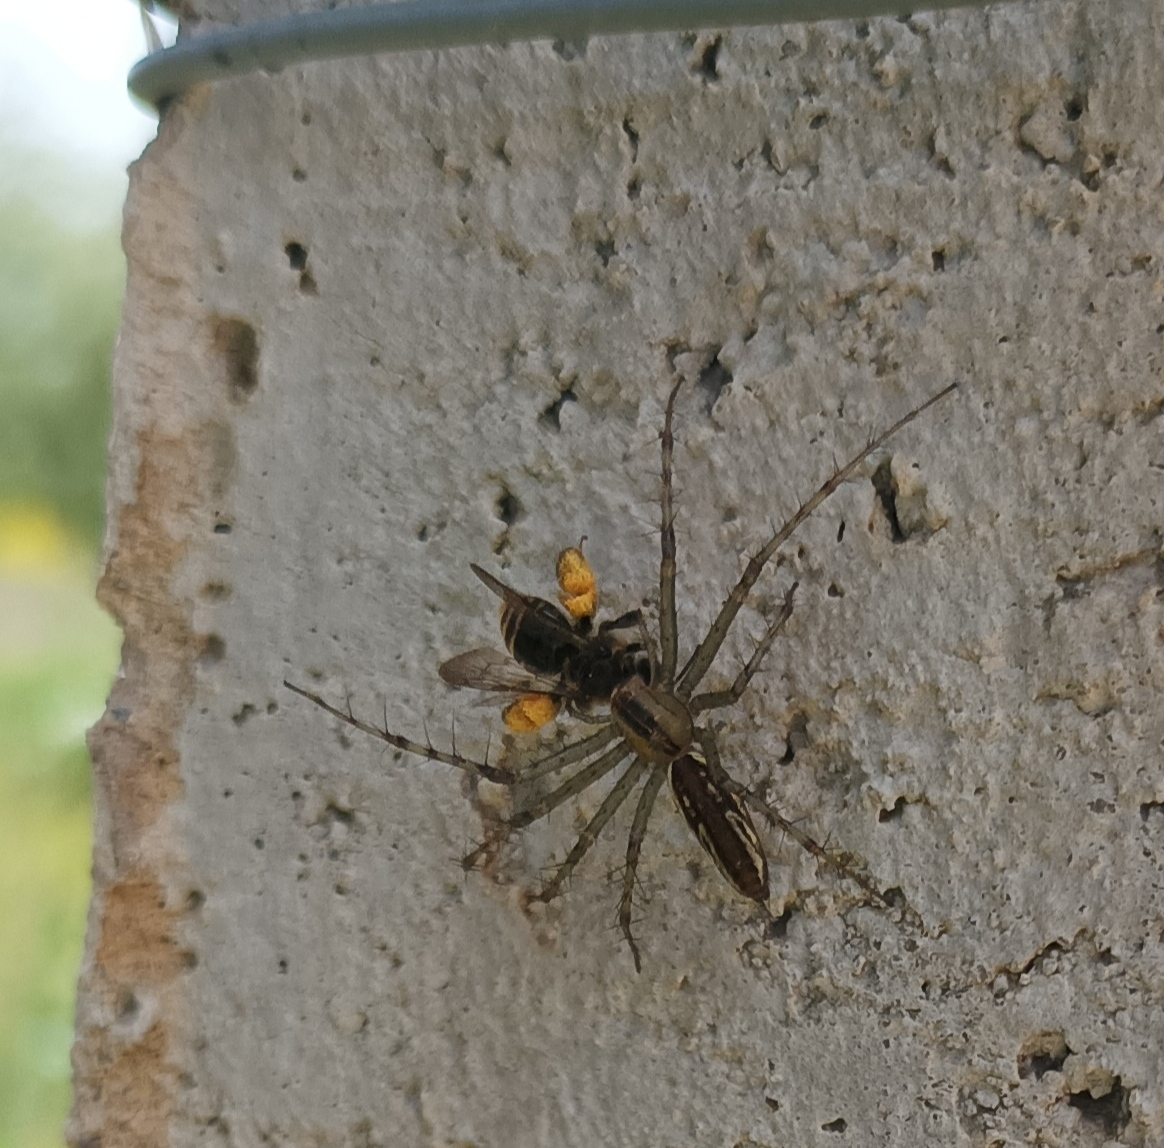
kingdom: Animalia
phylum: Arthropoda
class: Arachnida
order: Araneae
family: Oxyopidae
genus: Peucetia
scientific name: Peucetia rubrolineata
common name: Lynx spiders
